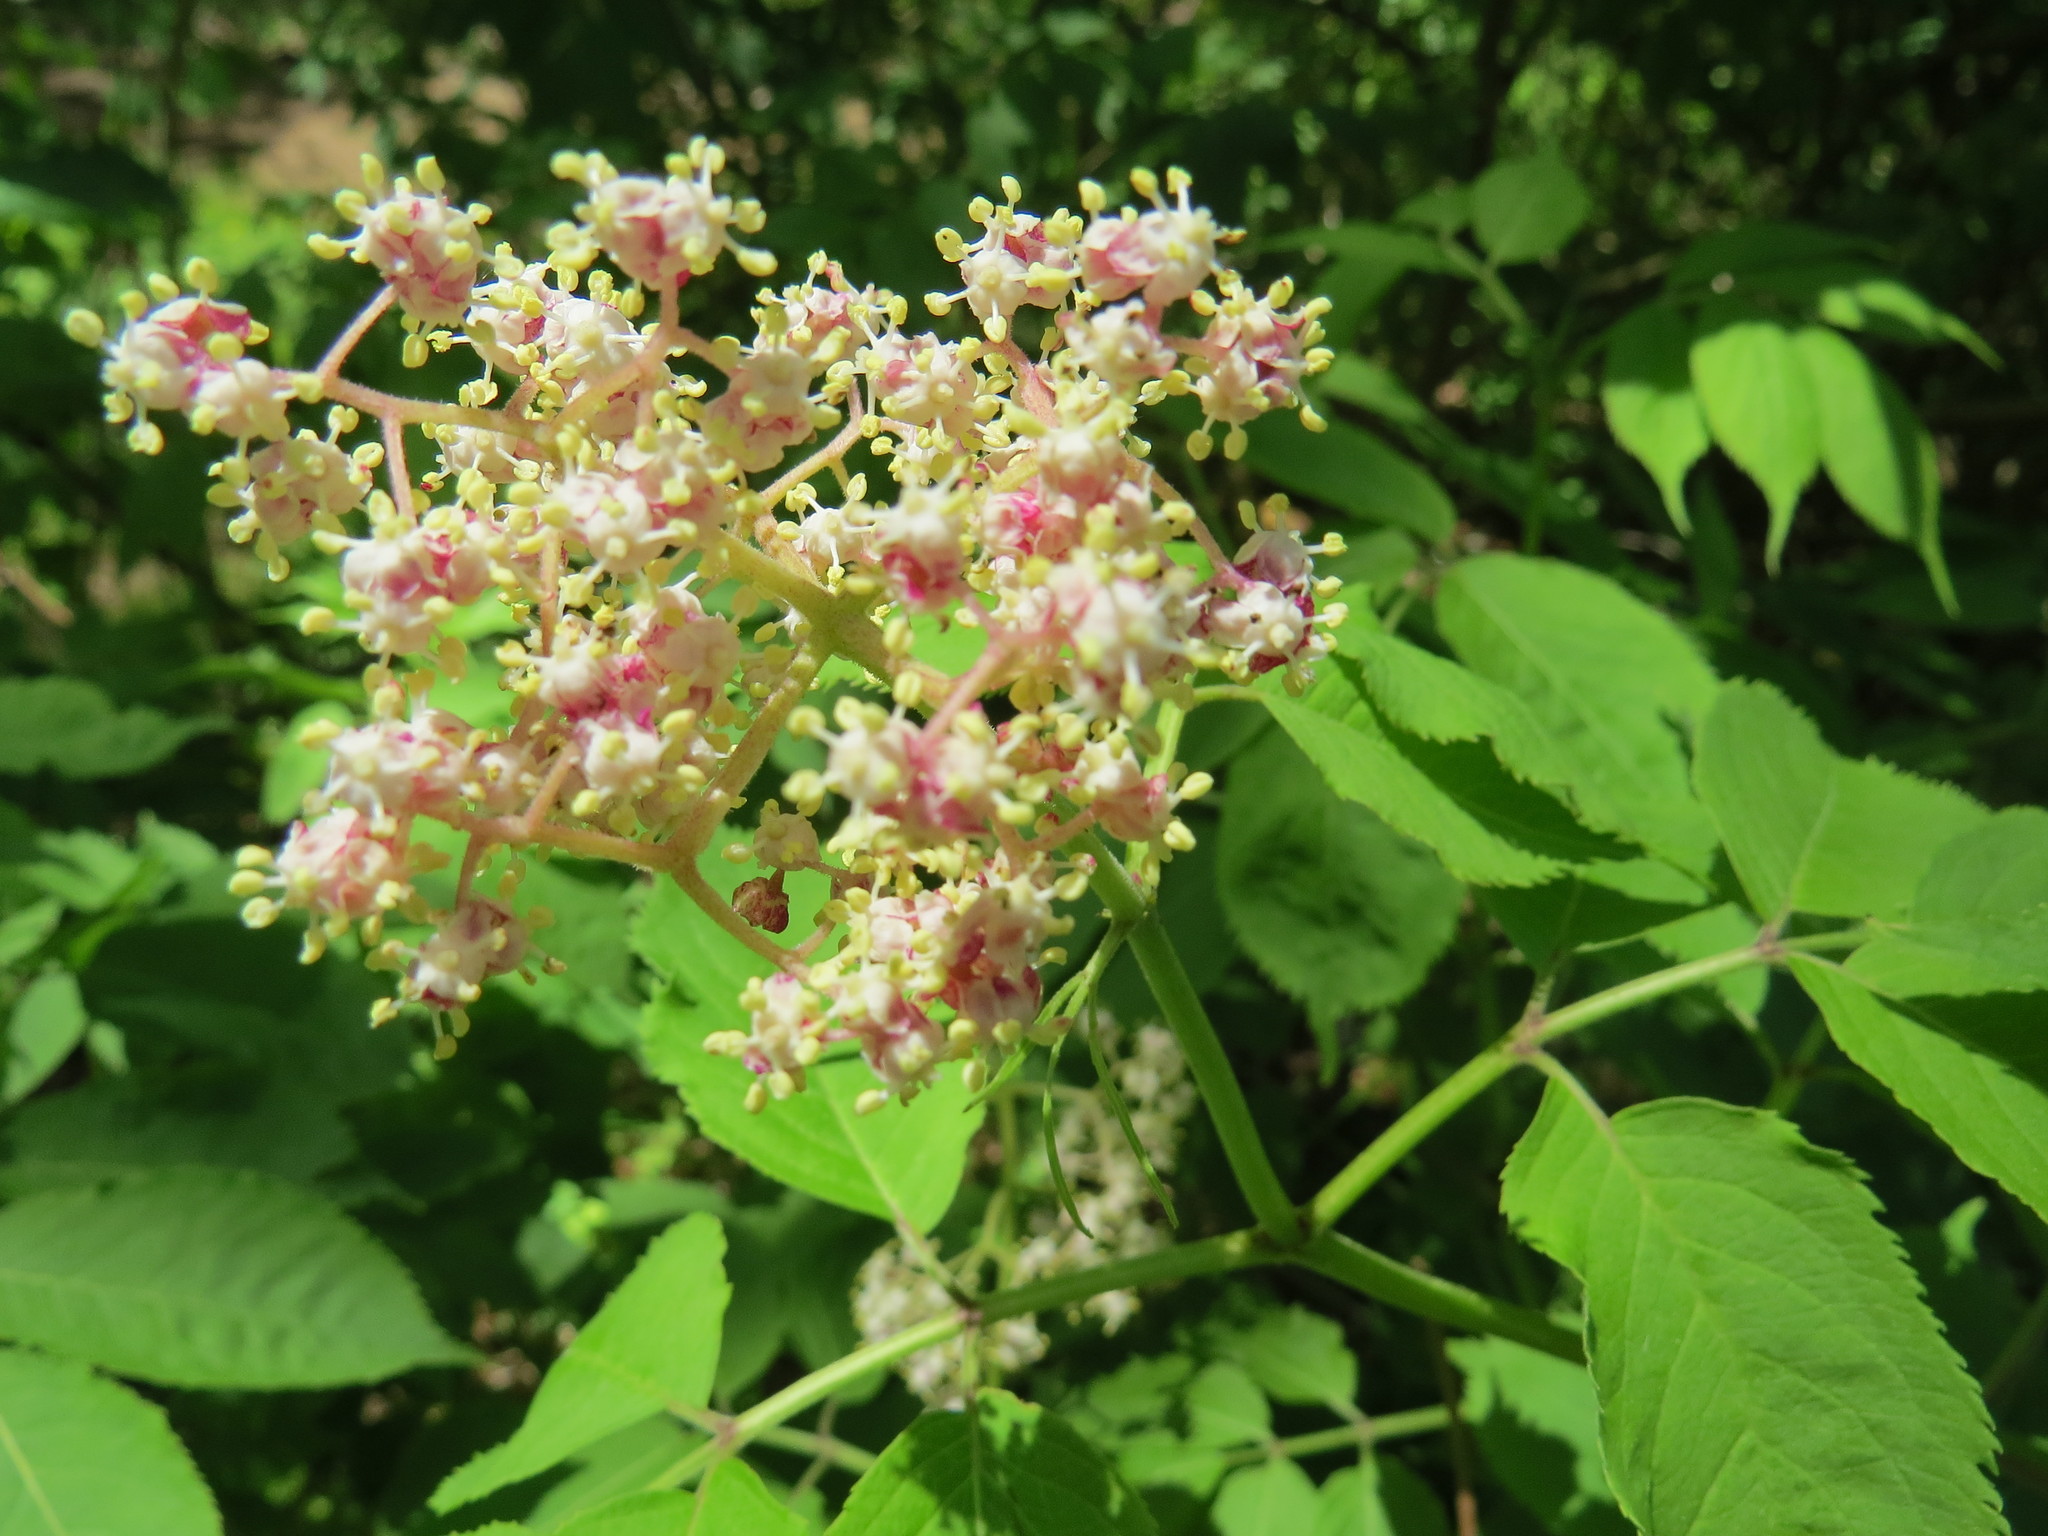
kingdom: Plantae
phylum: Tracheophyta
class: Magnoliopsida
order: Dipsacales
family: Viburnaceae
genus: Sambucus
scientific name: Sambucus racemosa
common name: Red-berried elder
